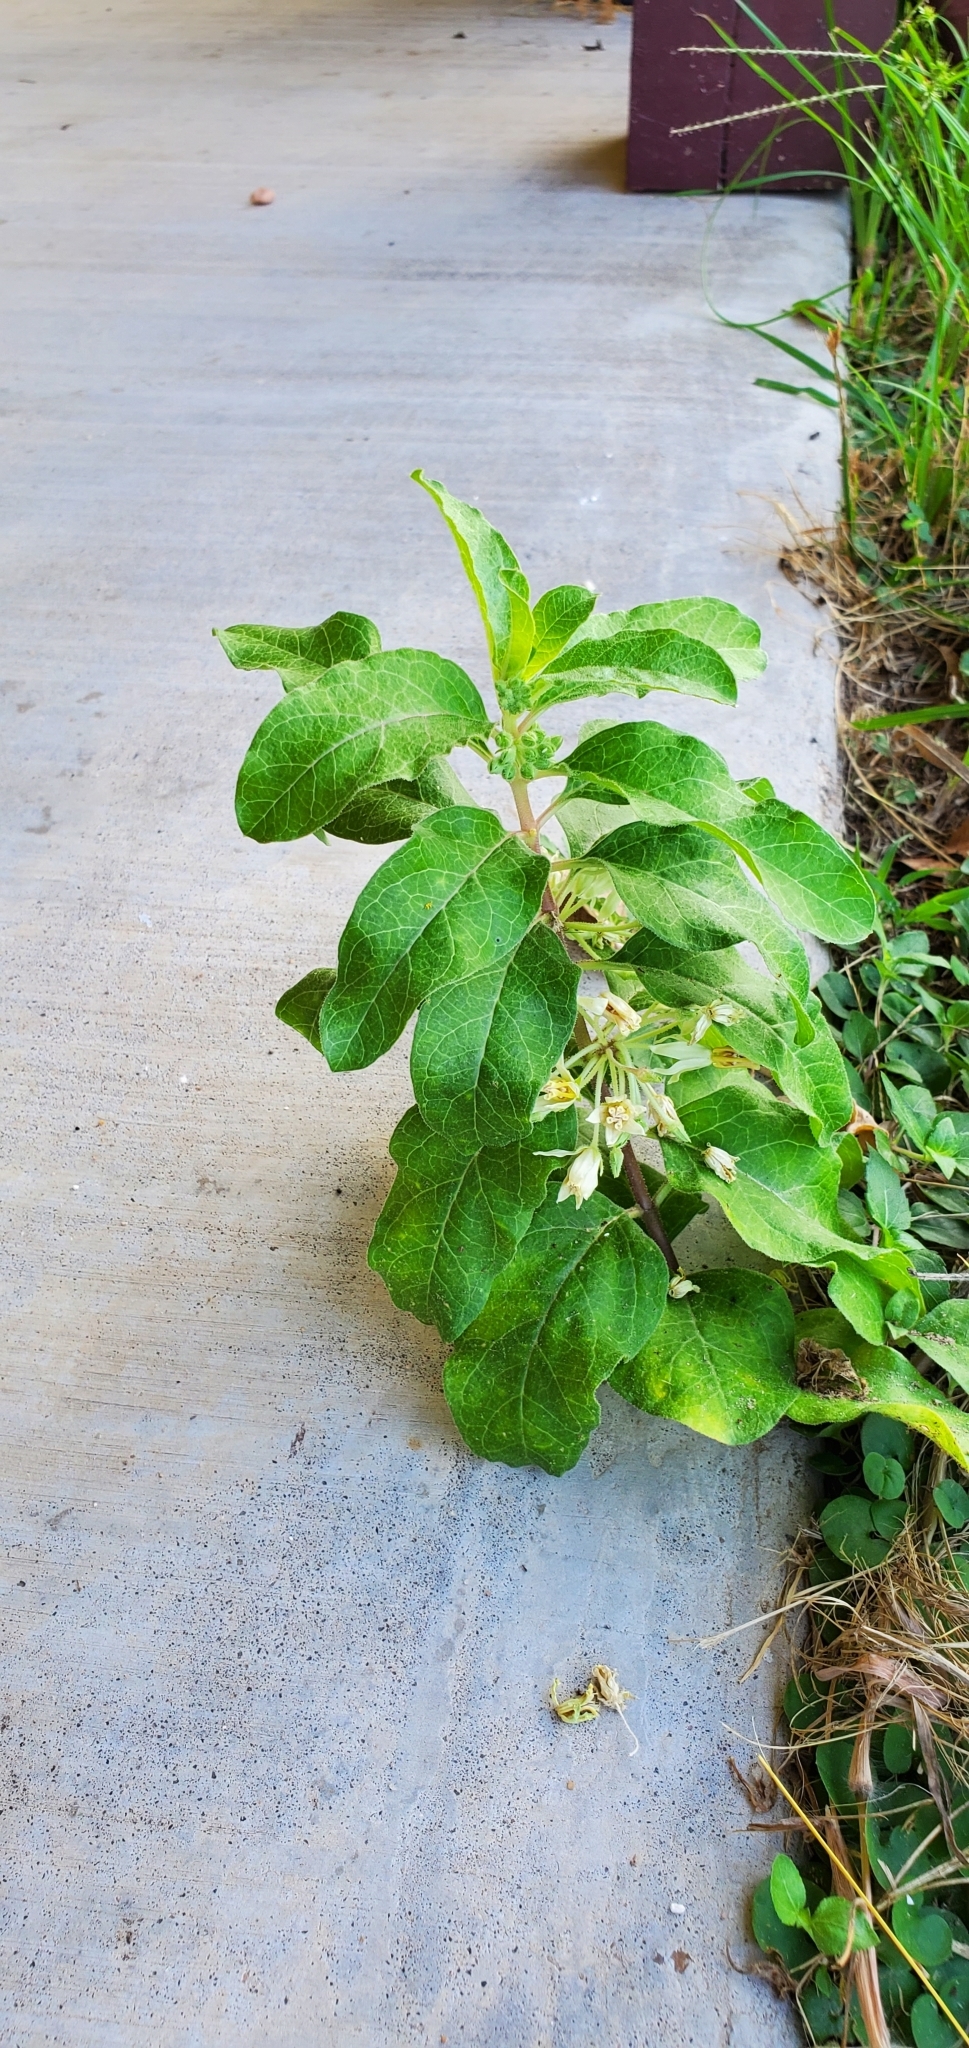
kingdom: Plantae
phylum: Tracheophyta
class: Magnoliopsida
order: Gentianales
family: Apocynaceae
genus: Asclepias
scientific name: Asclepias oenotheroides
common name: Zizotes milkweed
